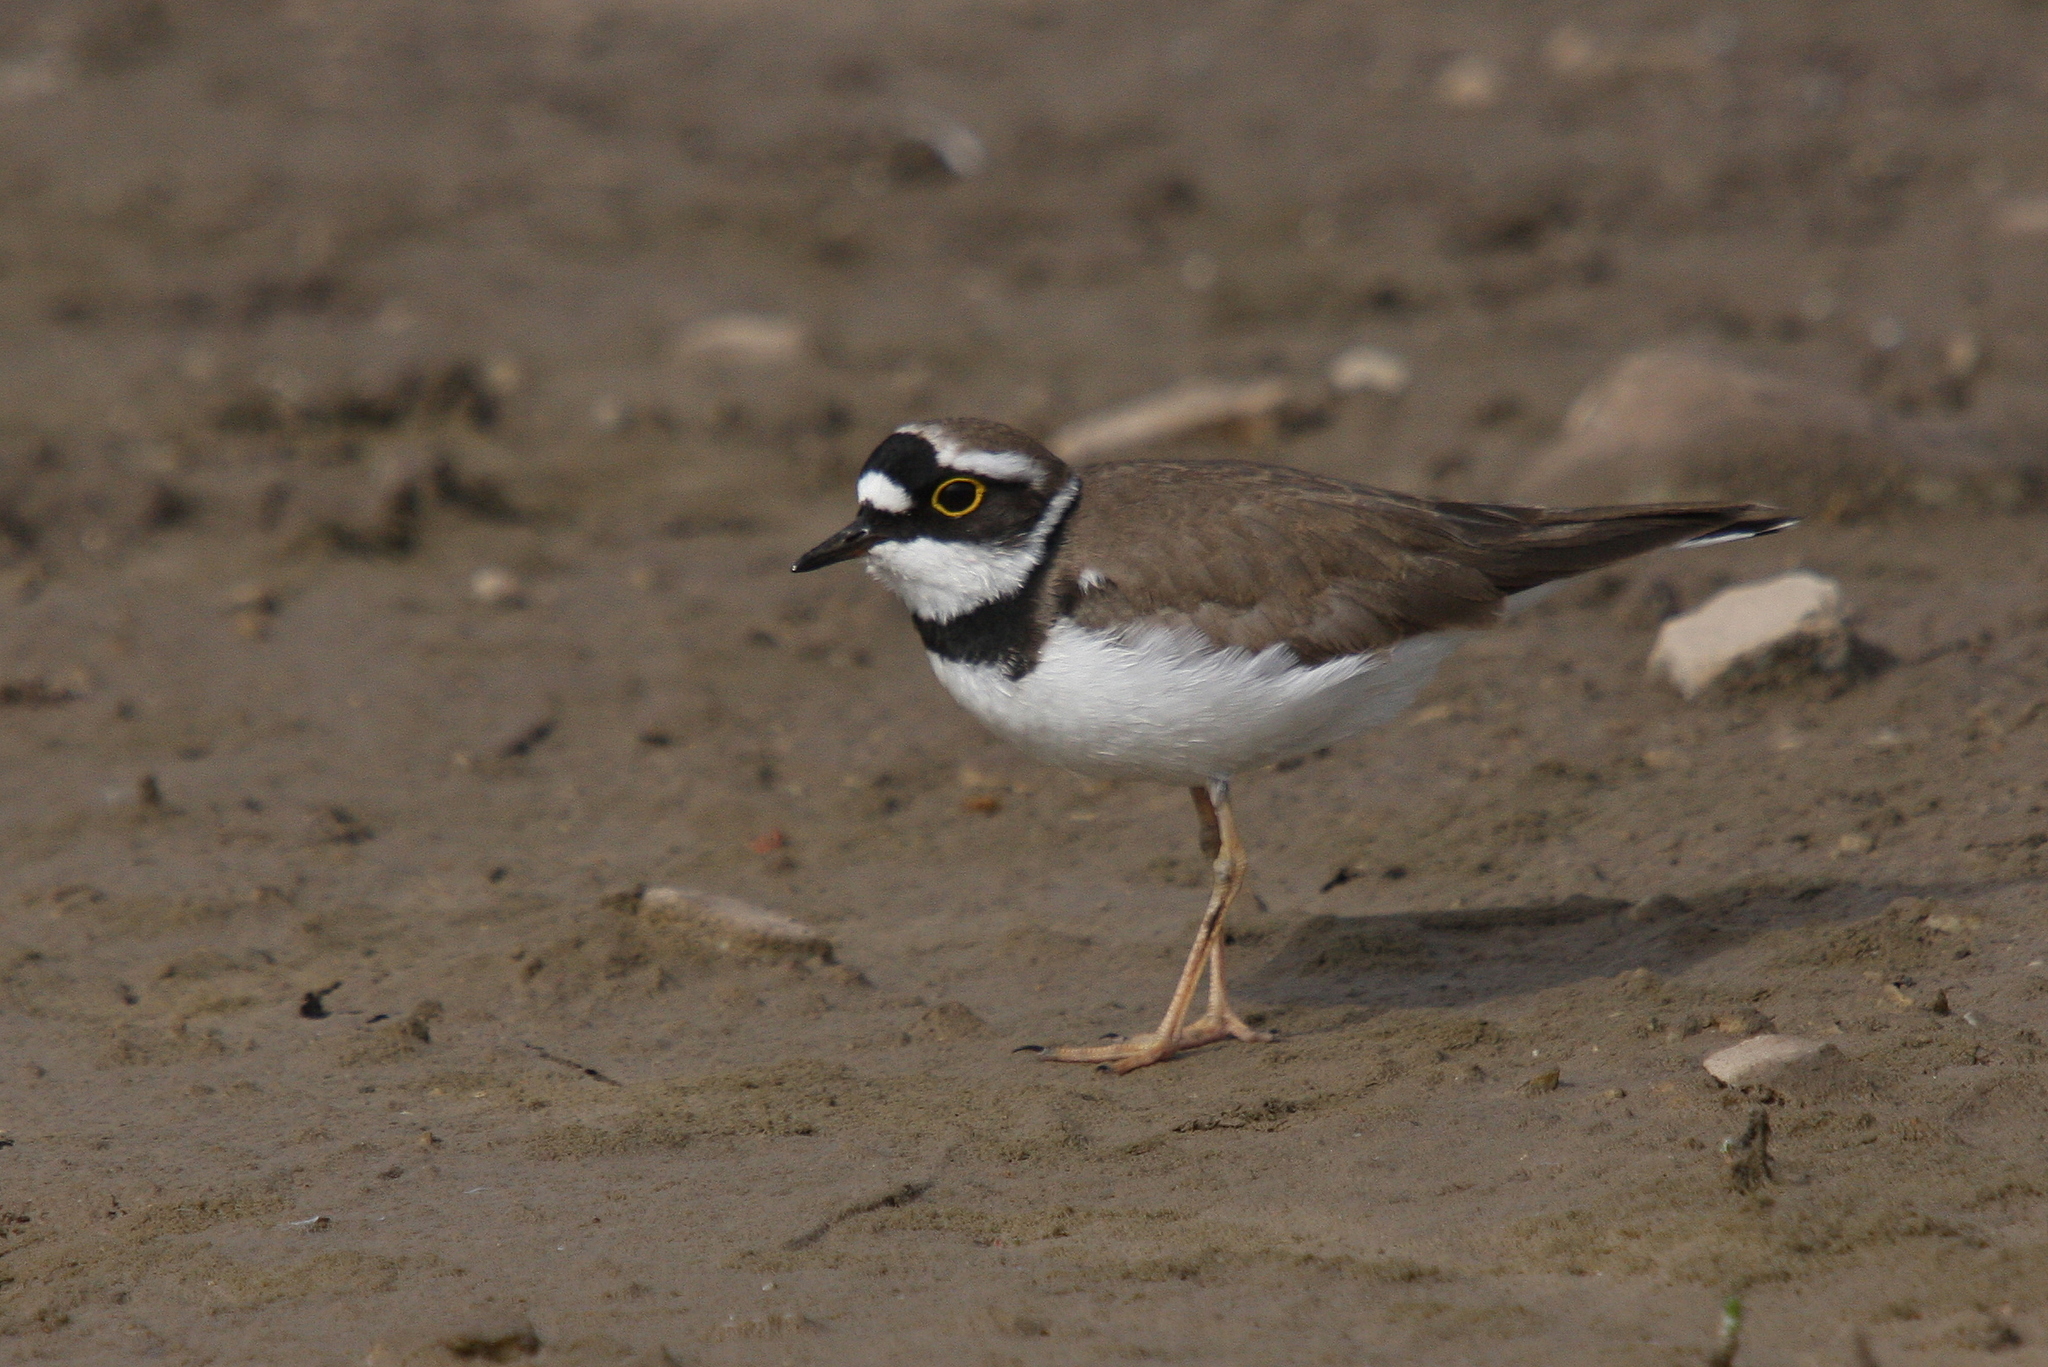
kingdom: Animalia
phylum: Chordata
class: Aves
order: Charadriiformes
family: Charadriidae
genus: Charadrius
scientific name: Charadrius dubius
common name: Little ringed plover
